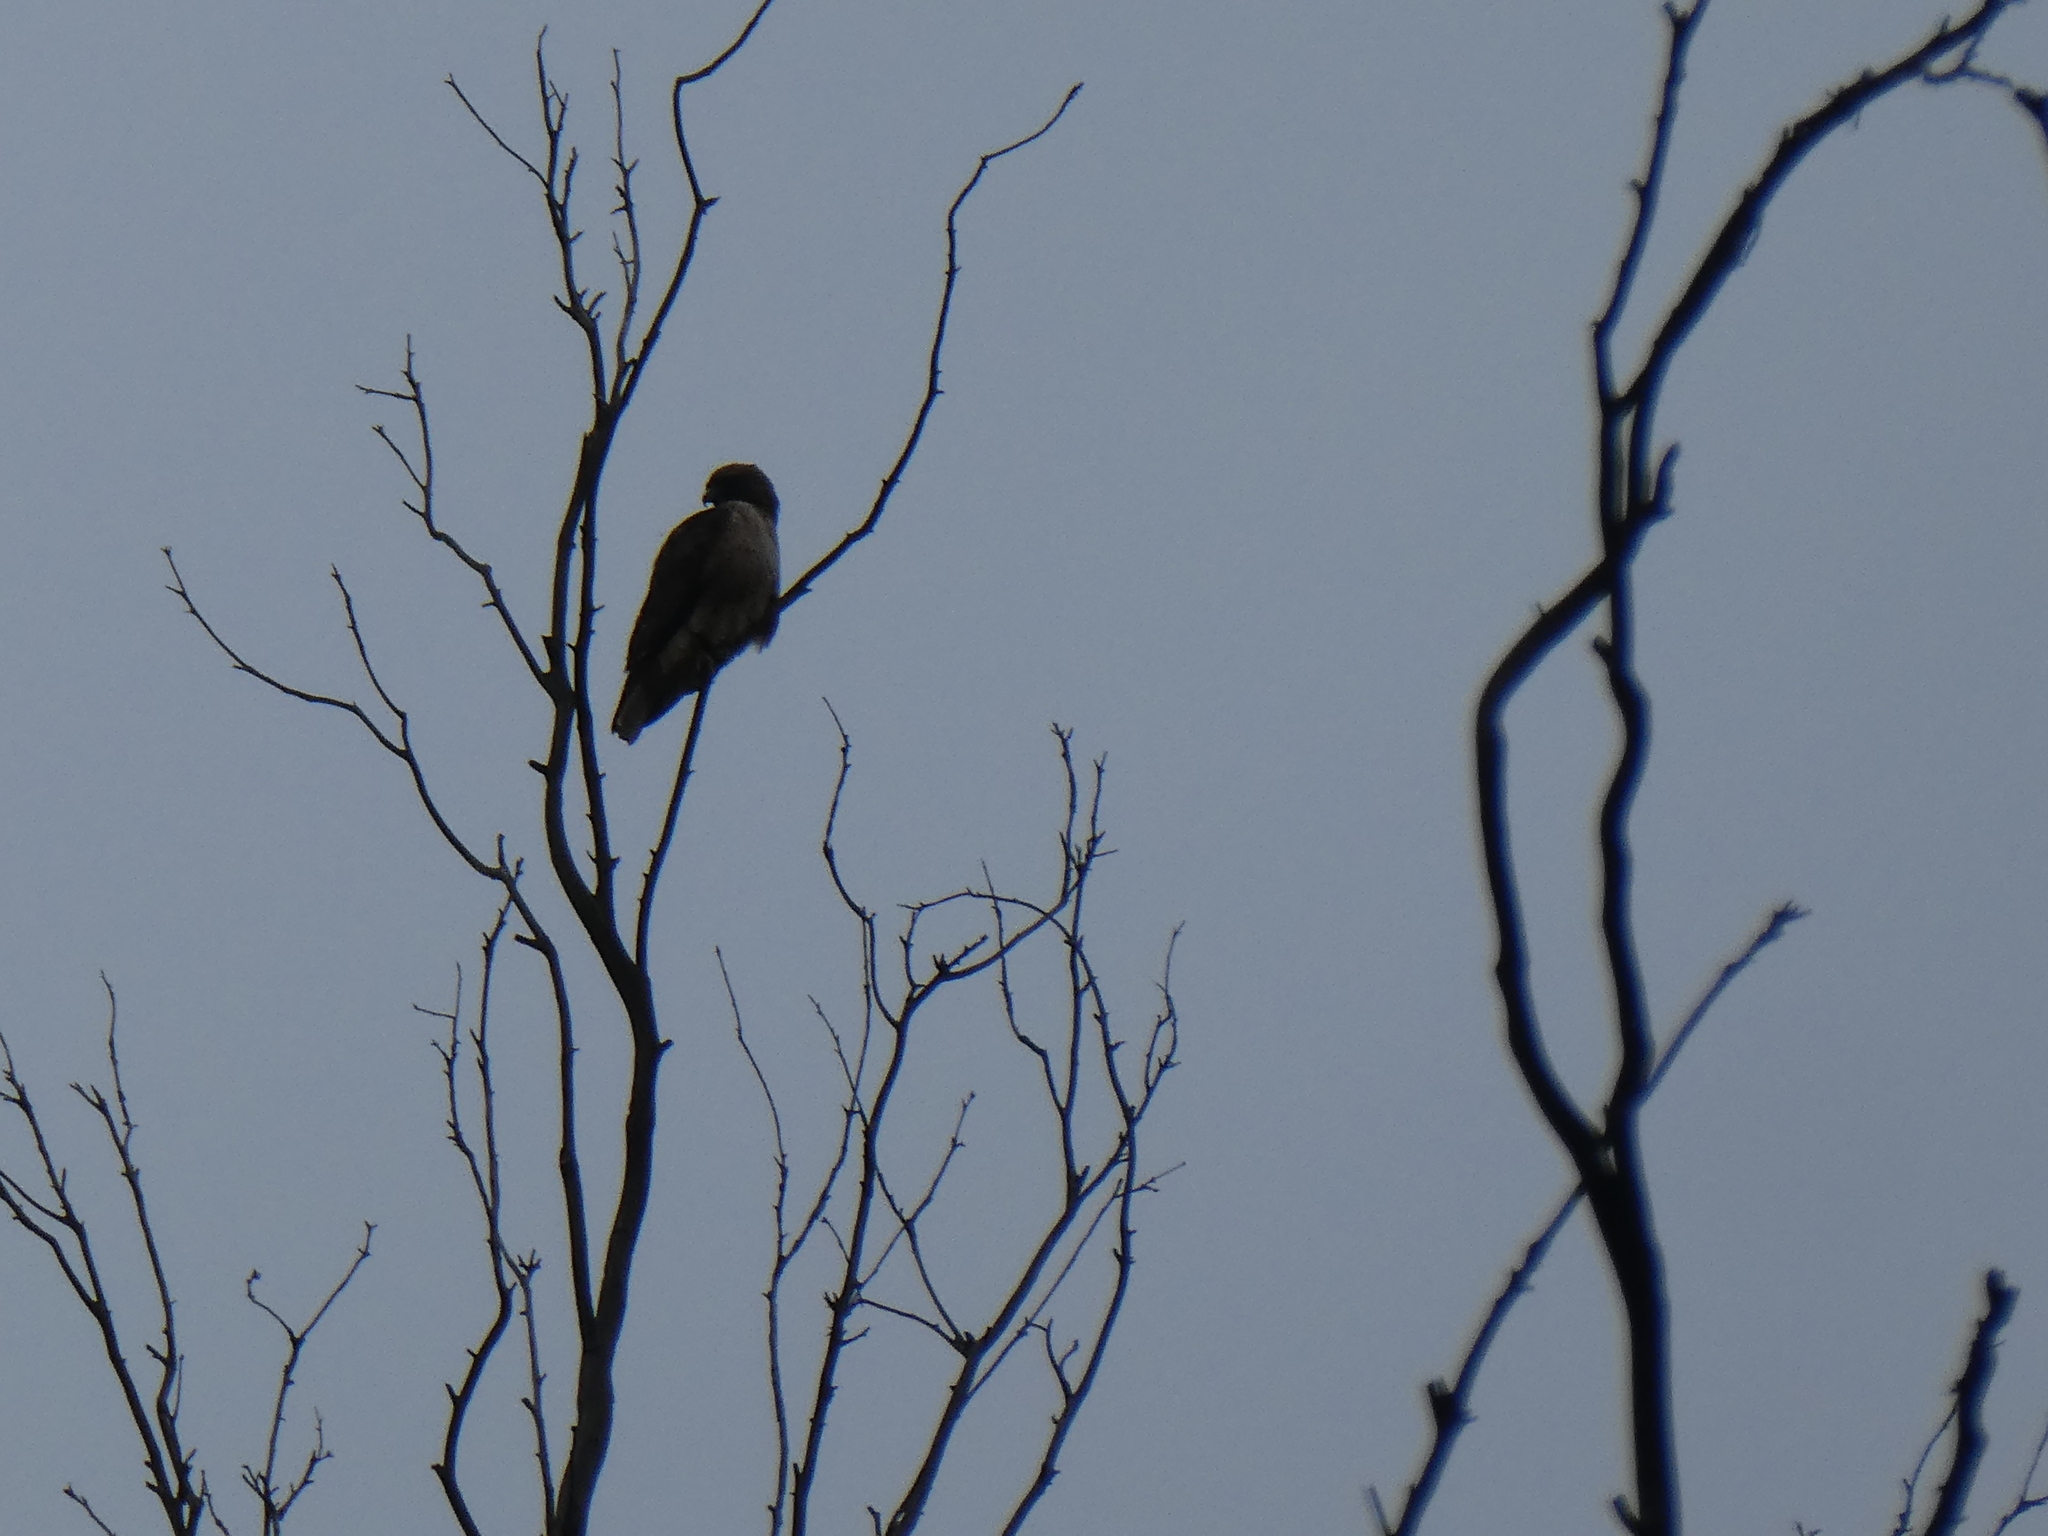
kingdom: Animalia
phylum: Chordata
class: Aves
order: Accipitriformes
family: Accipitridae
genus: Buteo
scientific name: Buteo jamaicensis
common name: Red-tailed hawk
